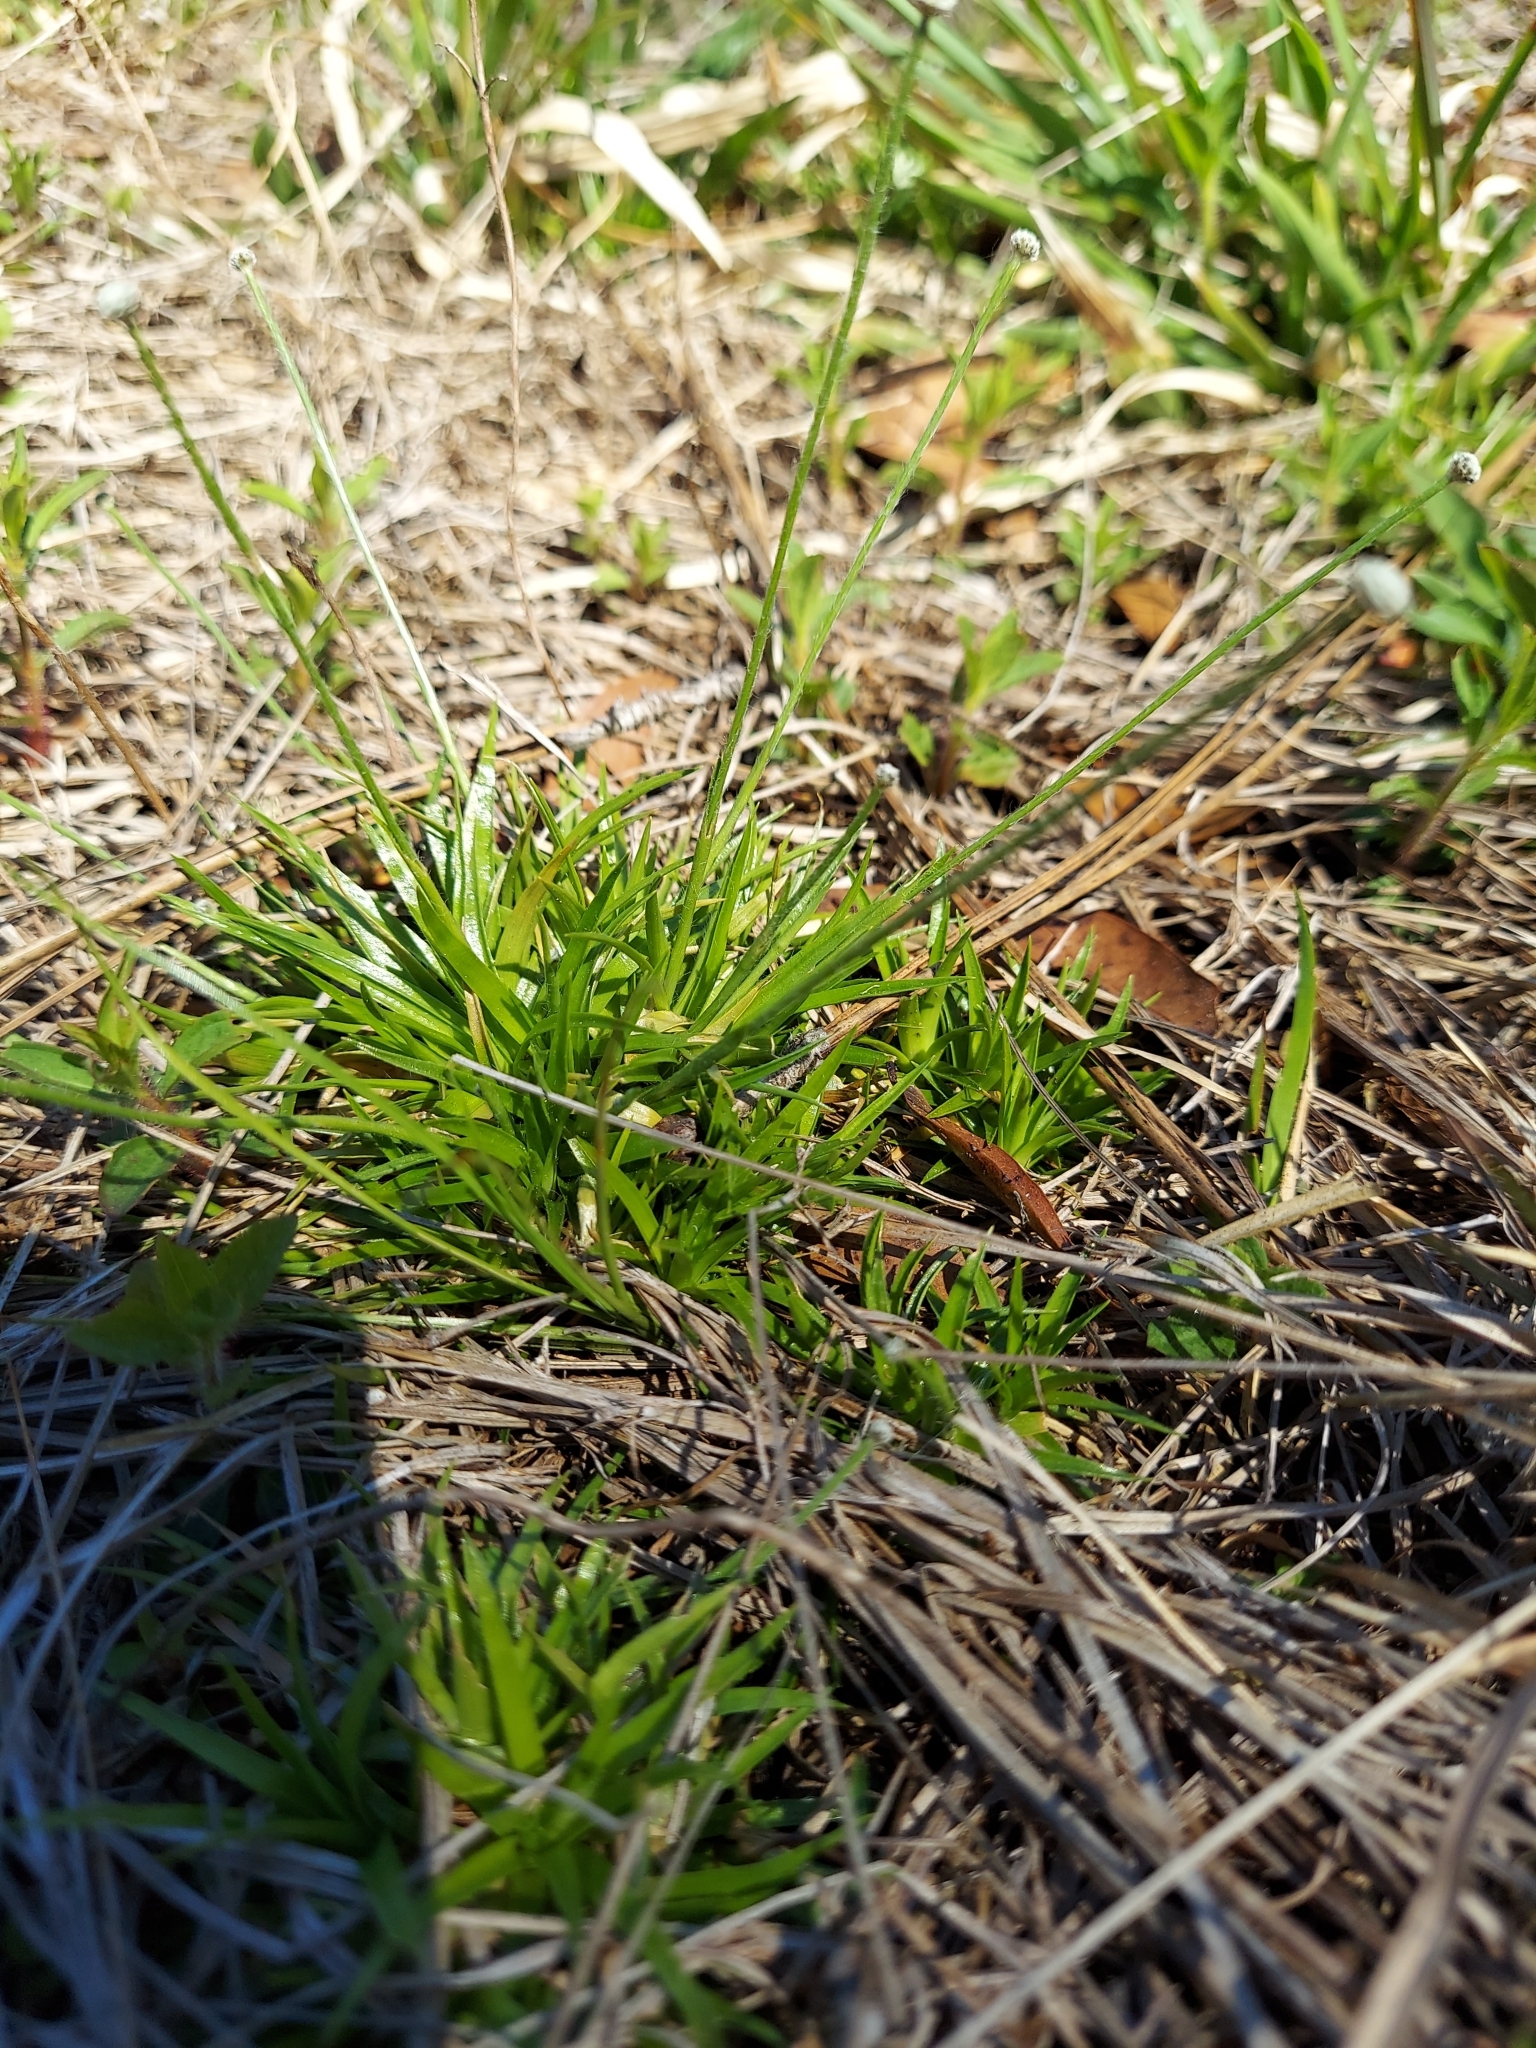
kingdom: Plantae
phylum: Tracheophyta
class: Liliopsida
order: Poales
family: Eriocaulaceae
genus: Paepalanthus
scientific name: Paepalanthus anceps
